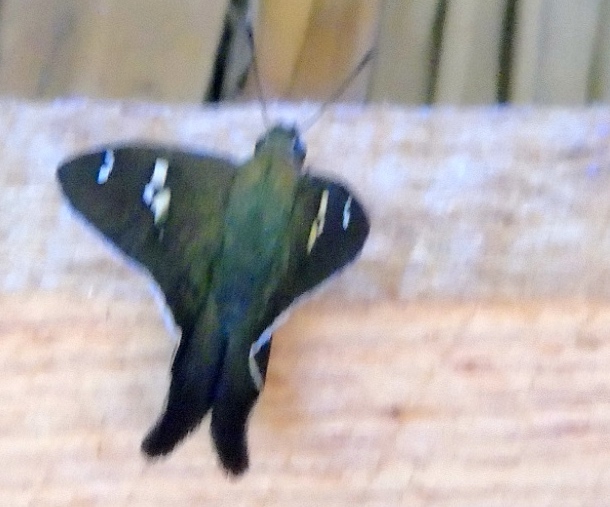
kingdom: Animalia
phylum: Arthropoda
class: Insecta
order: Lepidoptera
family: Hesperiidae
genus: Polythrix
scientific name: Polythrix caunus
